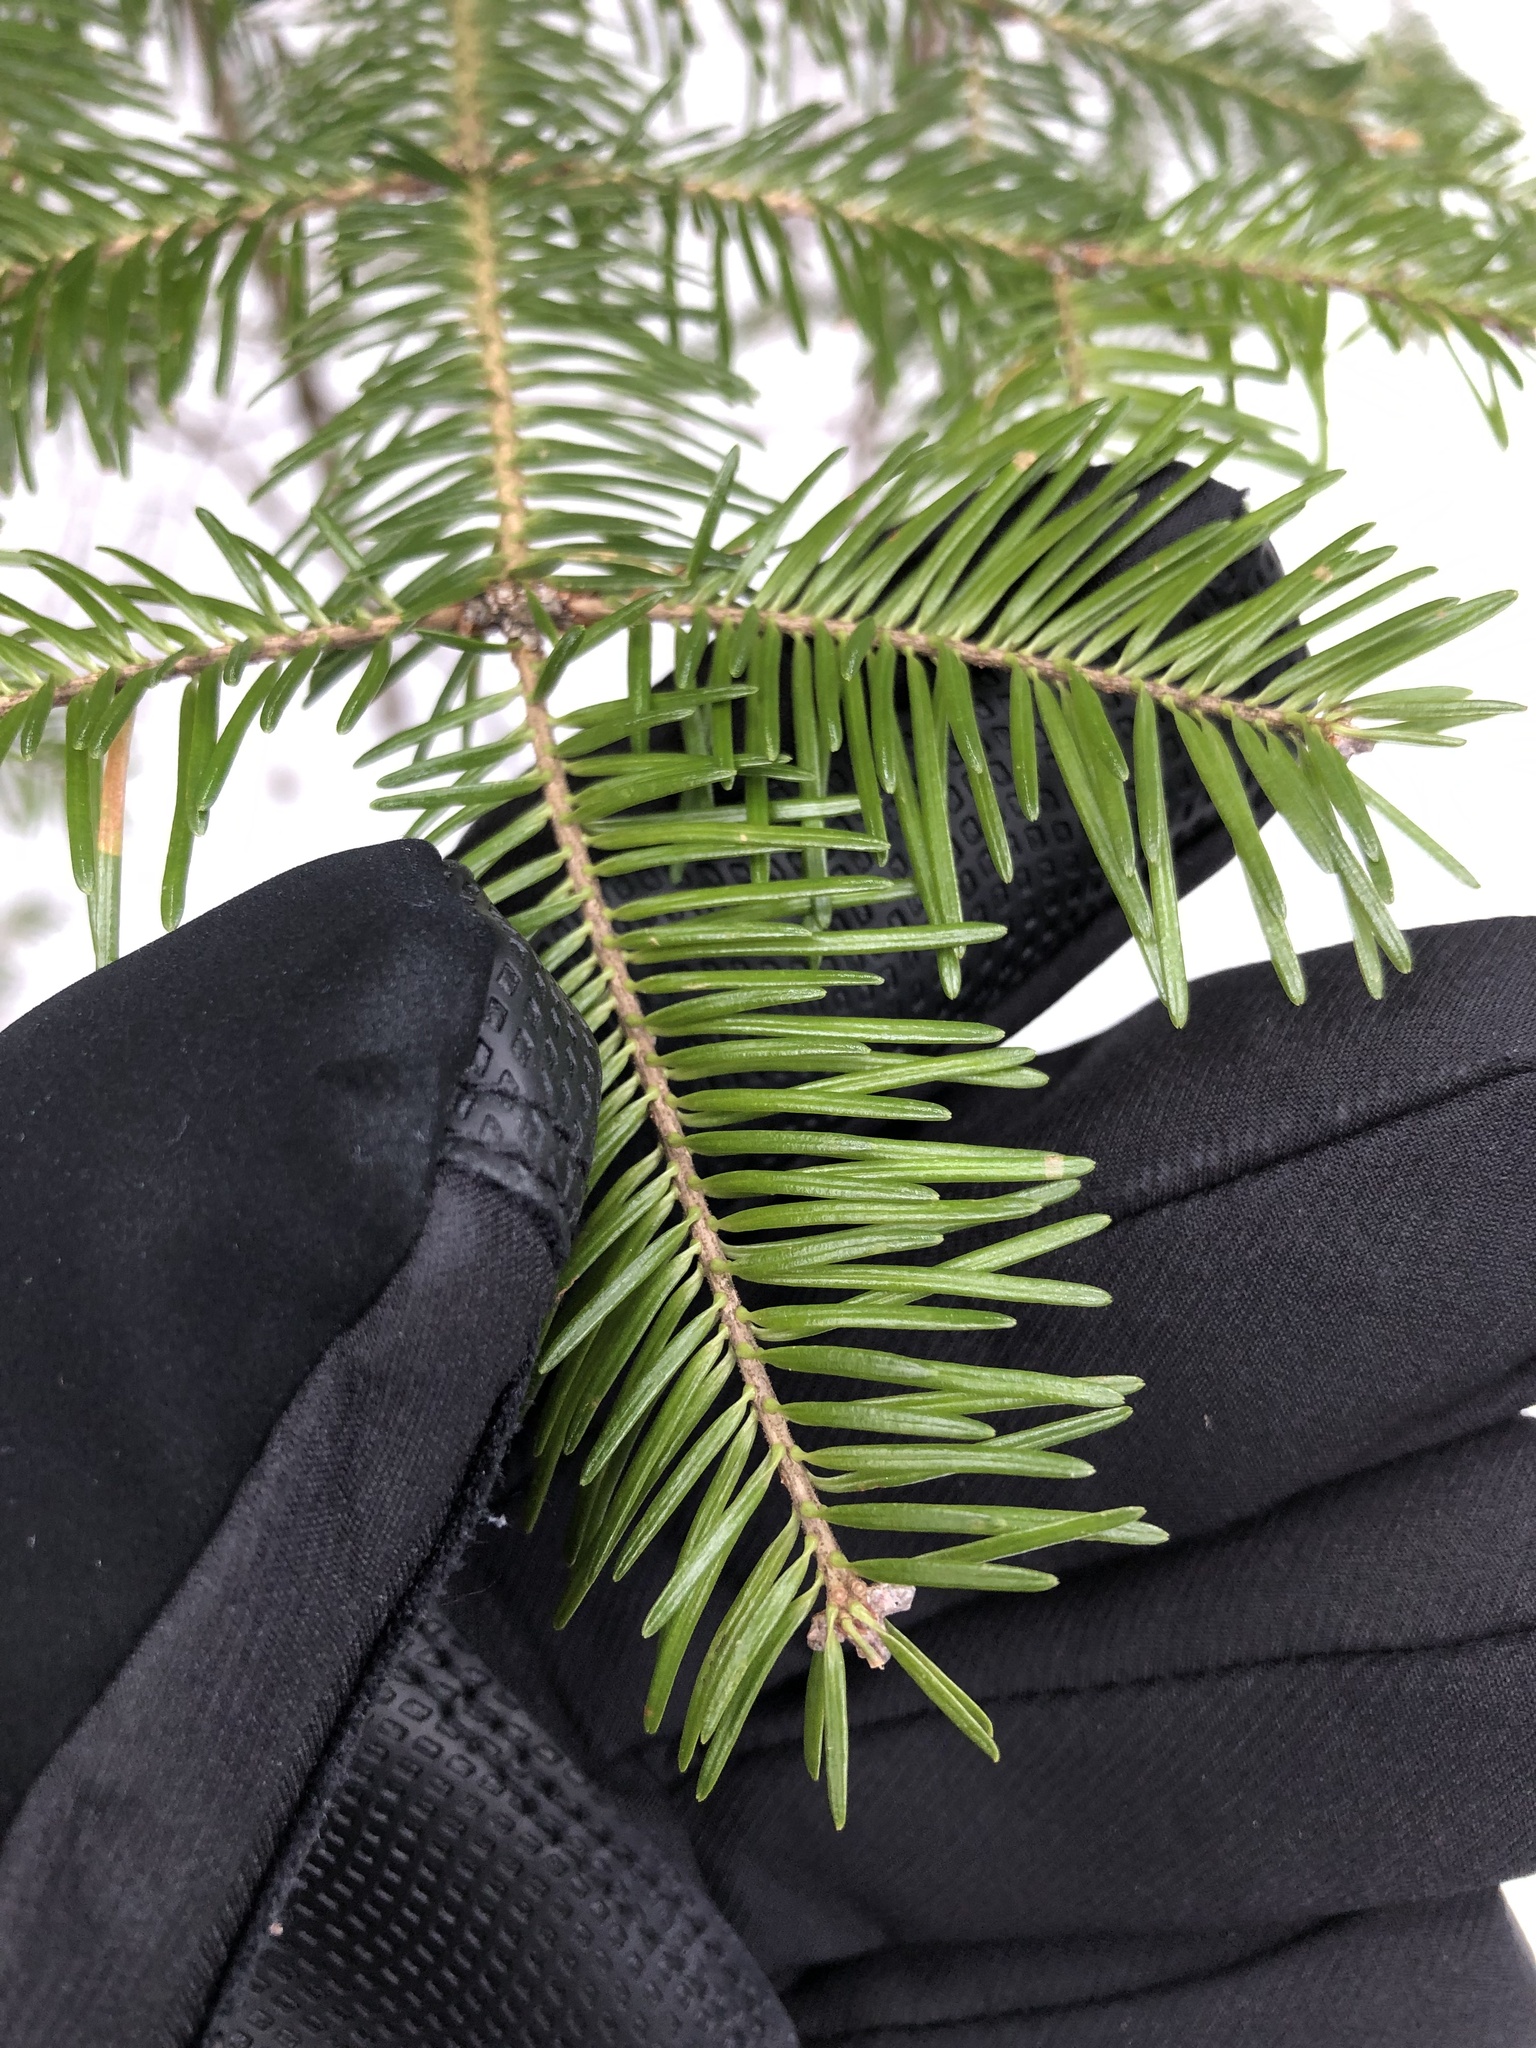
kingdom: Plantae
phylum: Tracheophyta
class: Pinopsida
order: Pinales
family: Pinaceae
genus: Abies
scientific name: Abies balsamea
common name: Balsam fir
